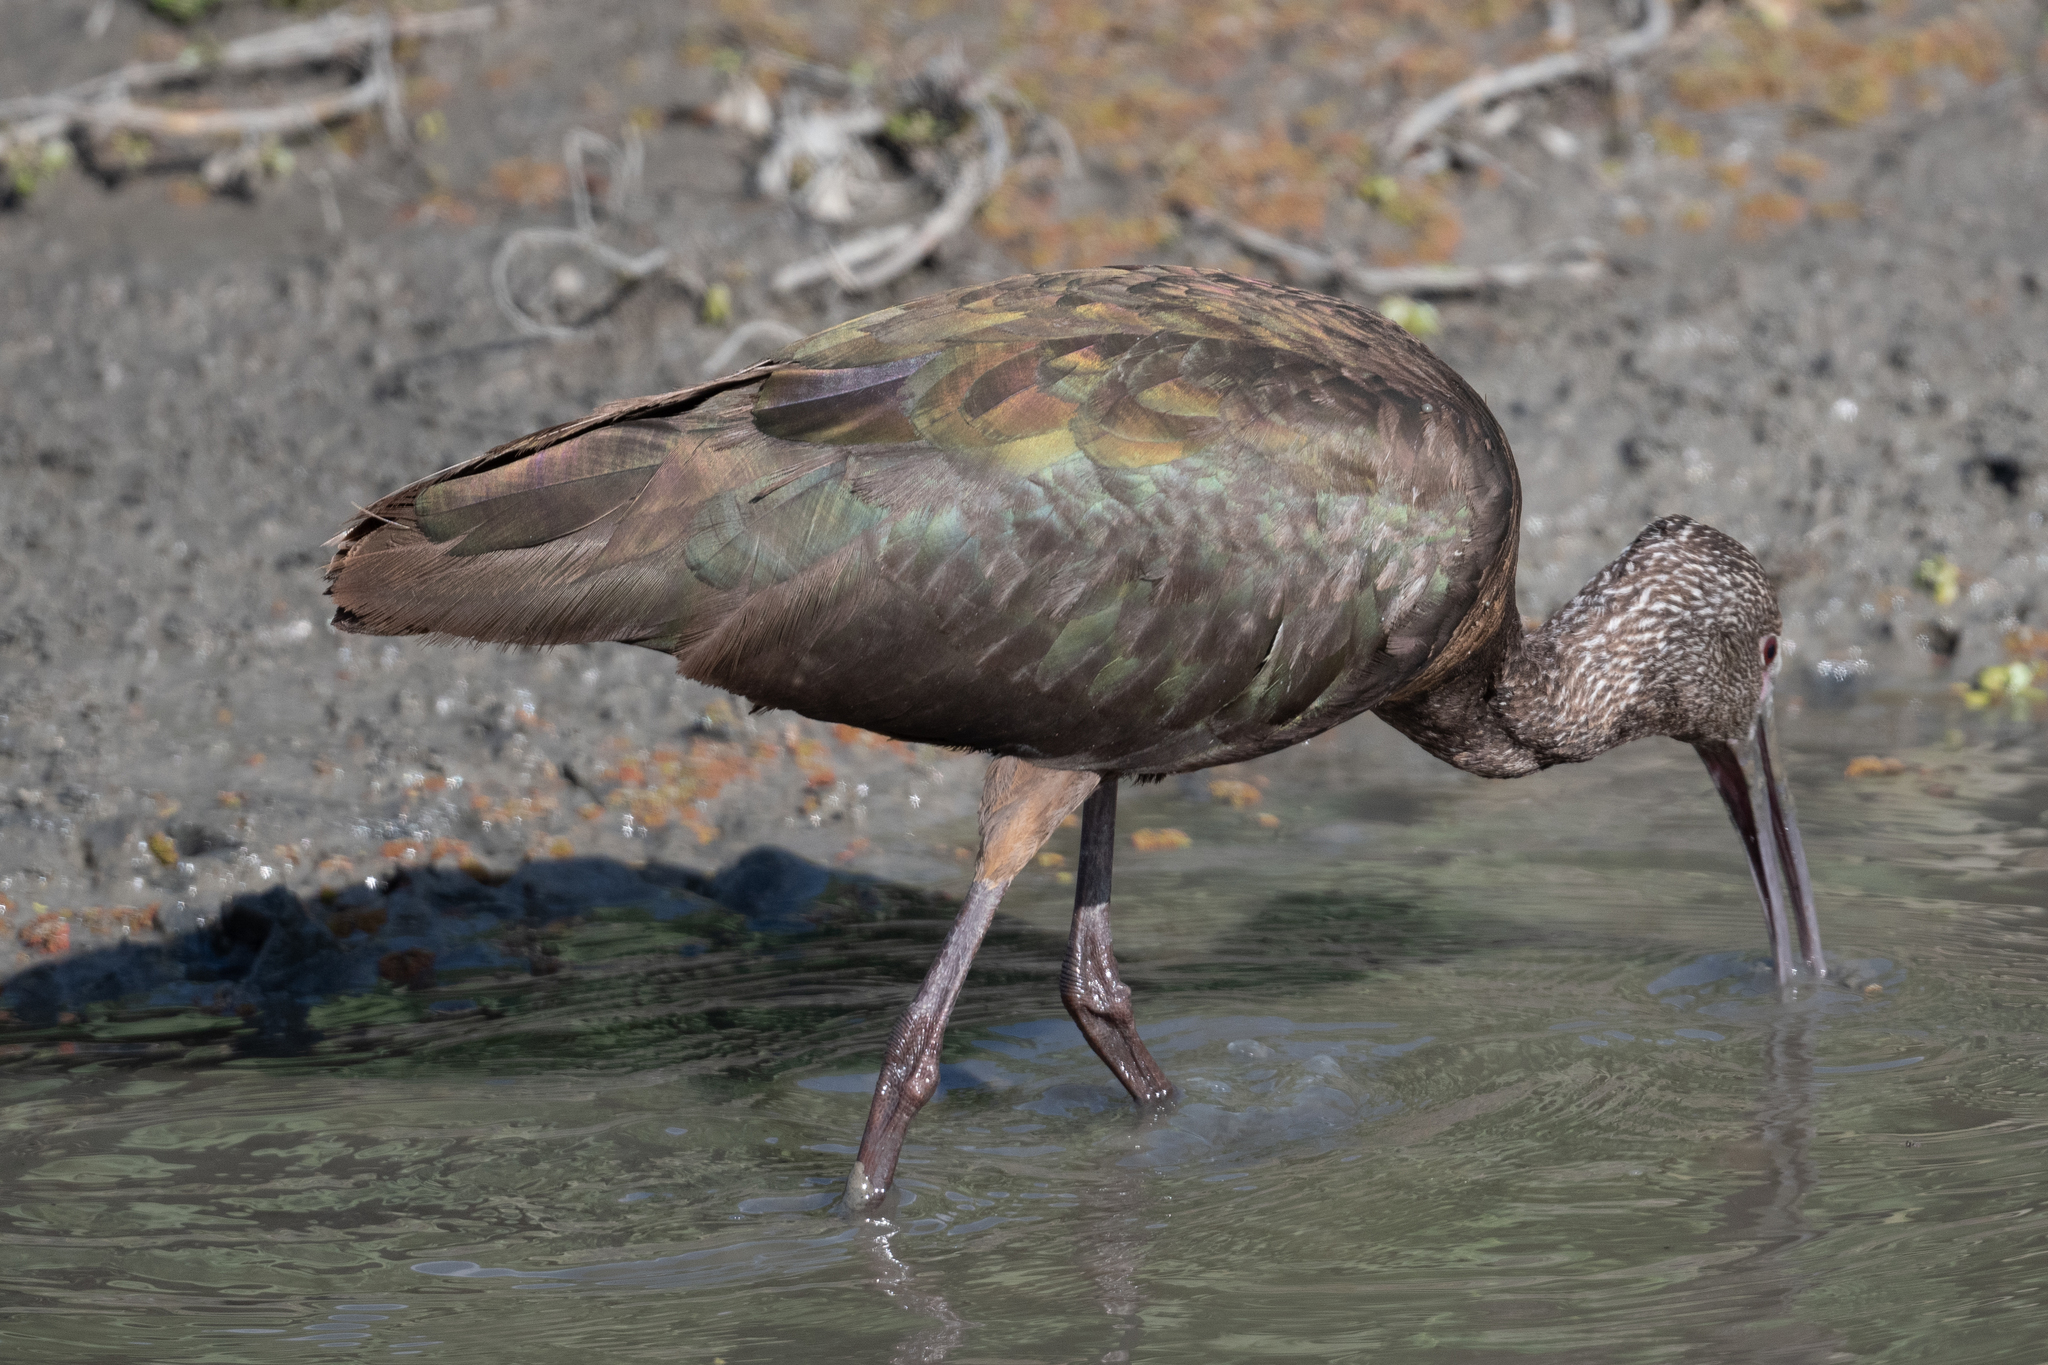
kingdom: Animalia
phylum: Chordata
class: Aves
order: Pelecaniformes
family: Threskiornithidae
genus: Plegadis
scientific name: Plegadis chihi
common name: White-faced ibis
